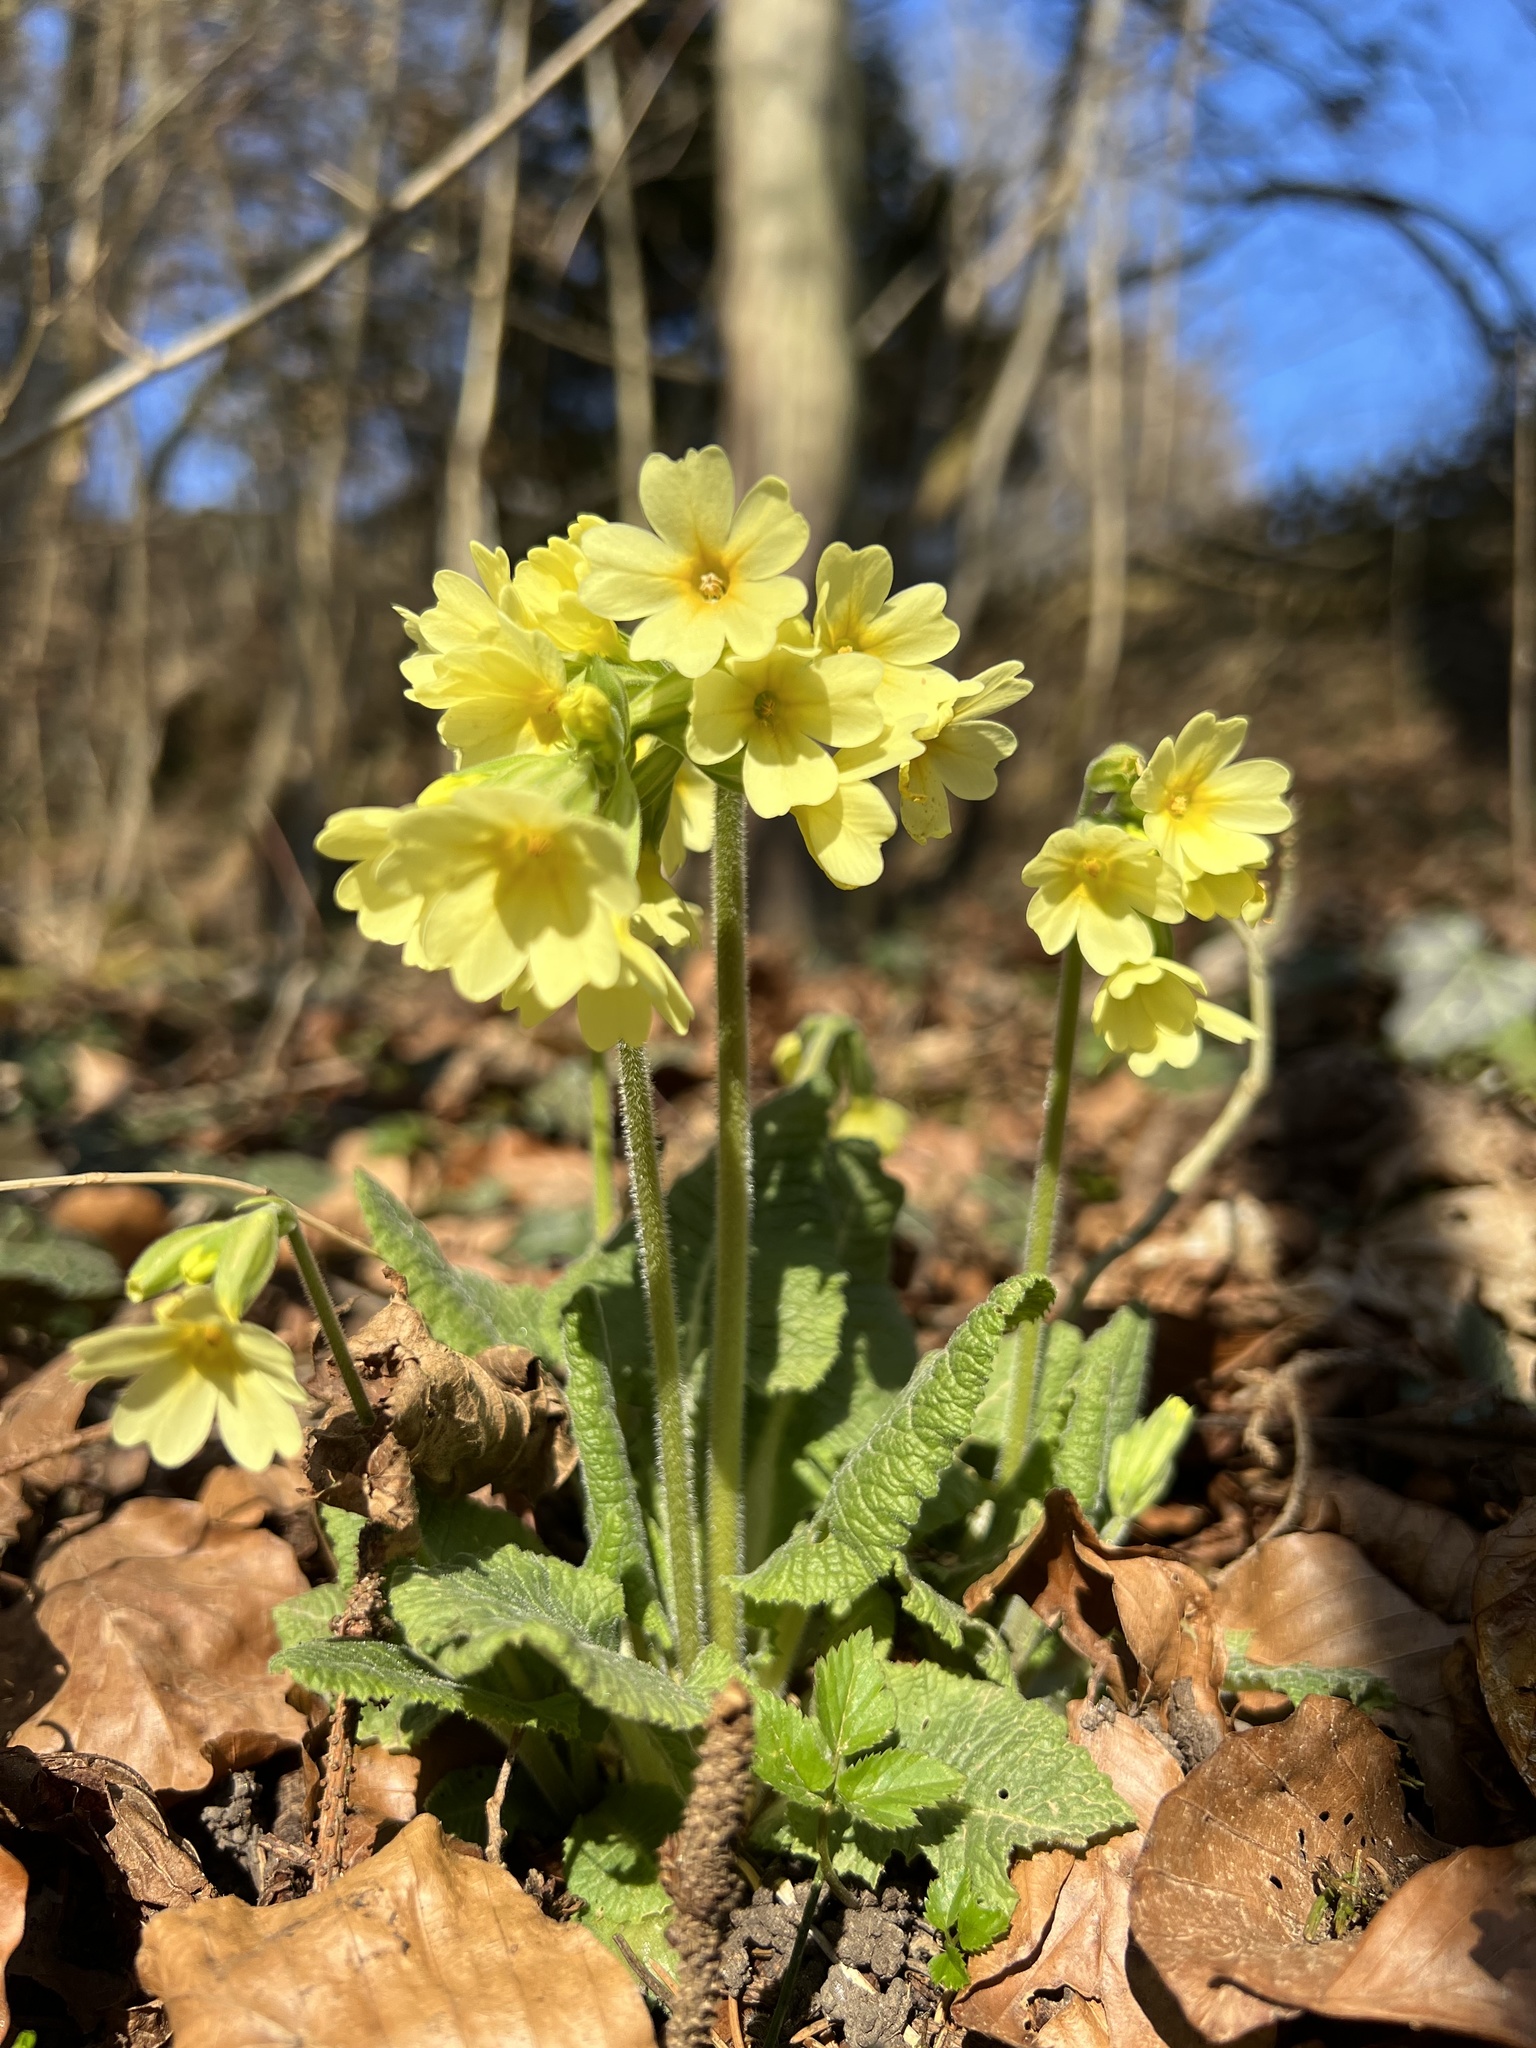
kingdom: Plantae
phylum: Tracheophyta
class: Magnoliopsida
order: Ericales
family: Primulaceae
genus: Primula
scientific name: Primula elatior
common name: Oxlip
